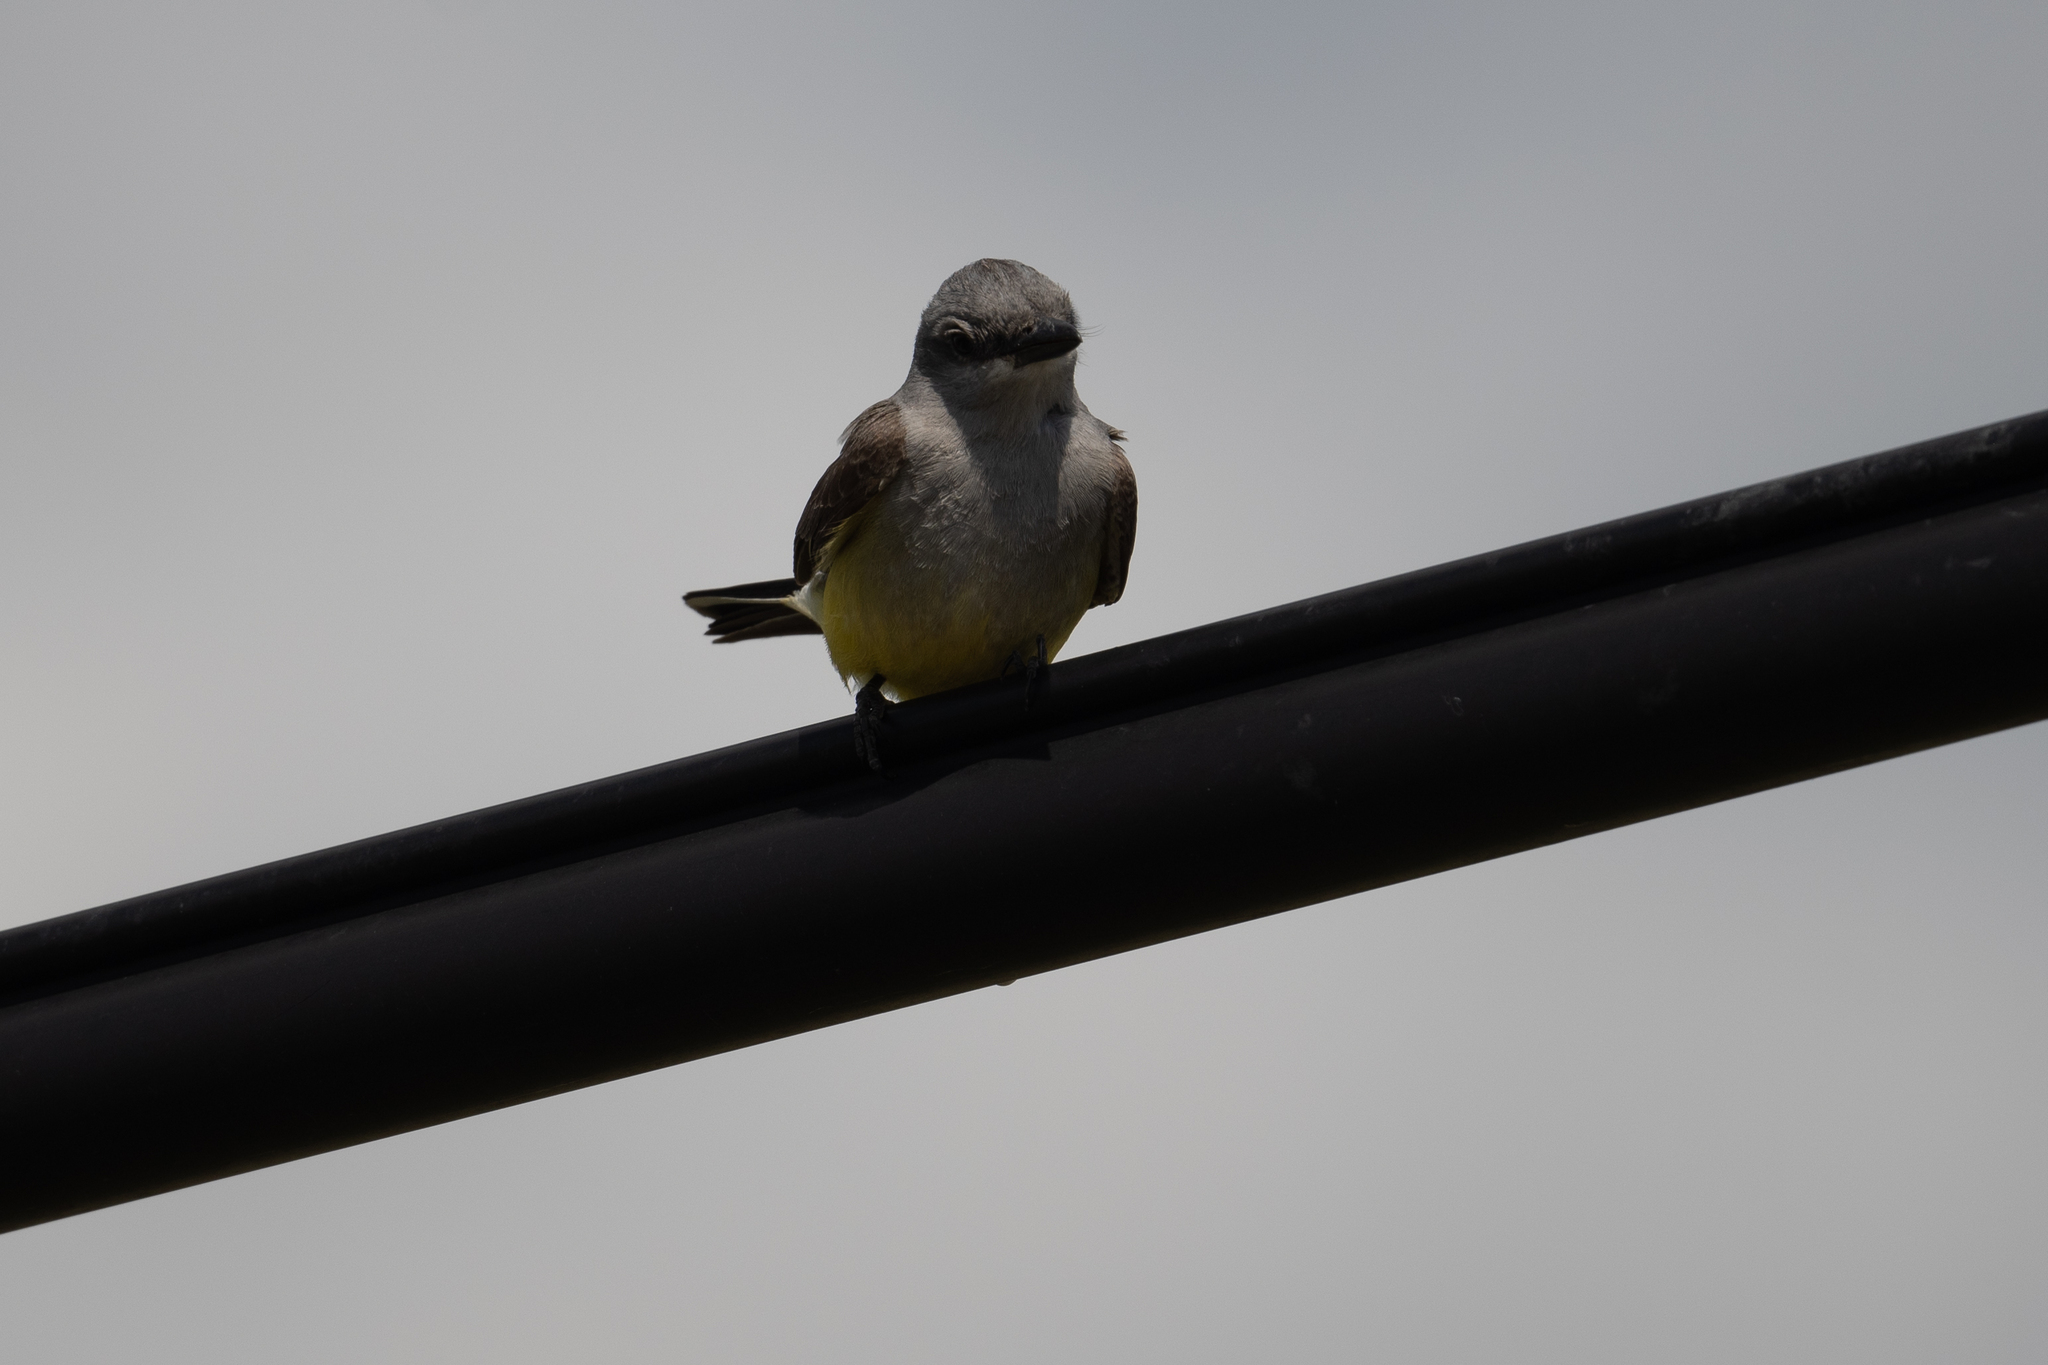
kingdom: Animalia
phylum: Chordata
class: Aves
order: Passeriformes
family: Tyrannidae
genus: Tyrannus
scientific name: Tyrannus verticalis
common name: Western kingbird
